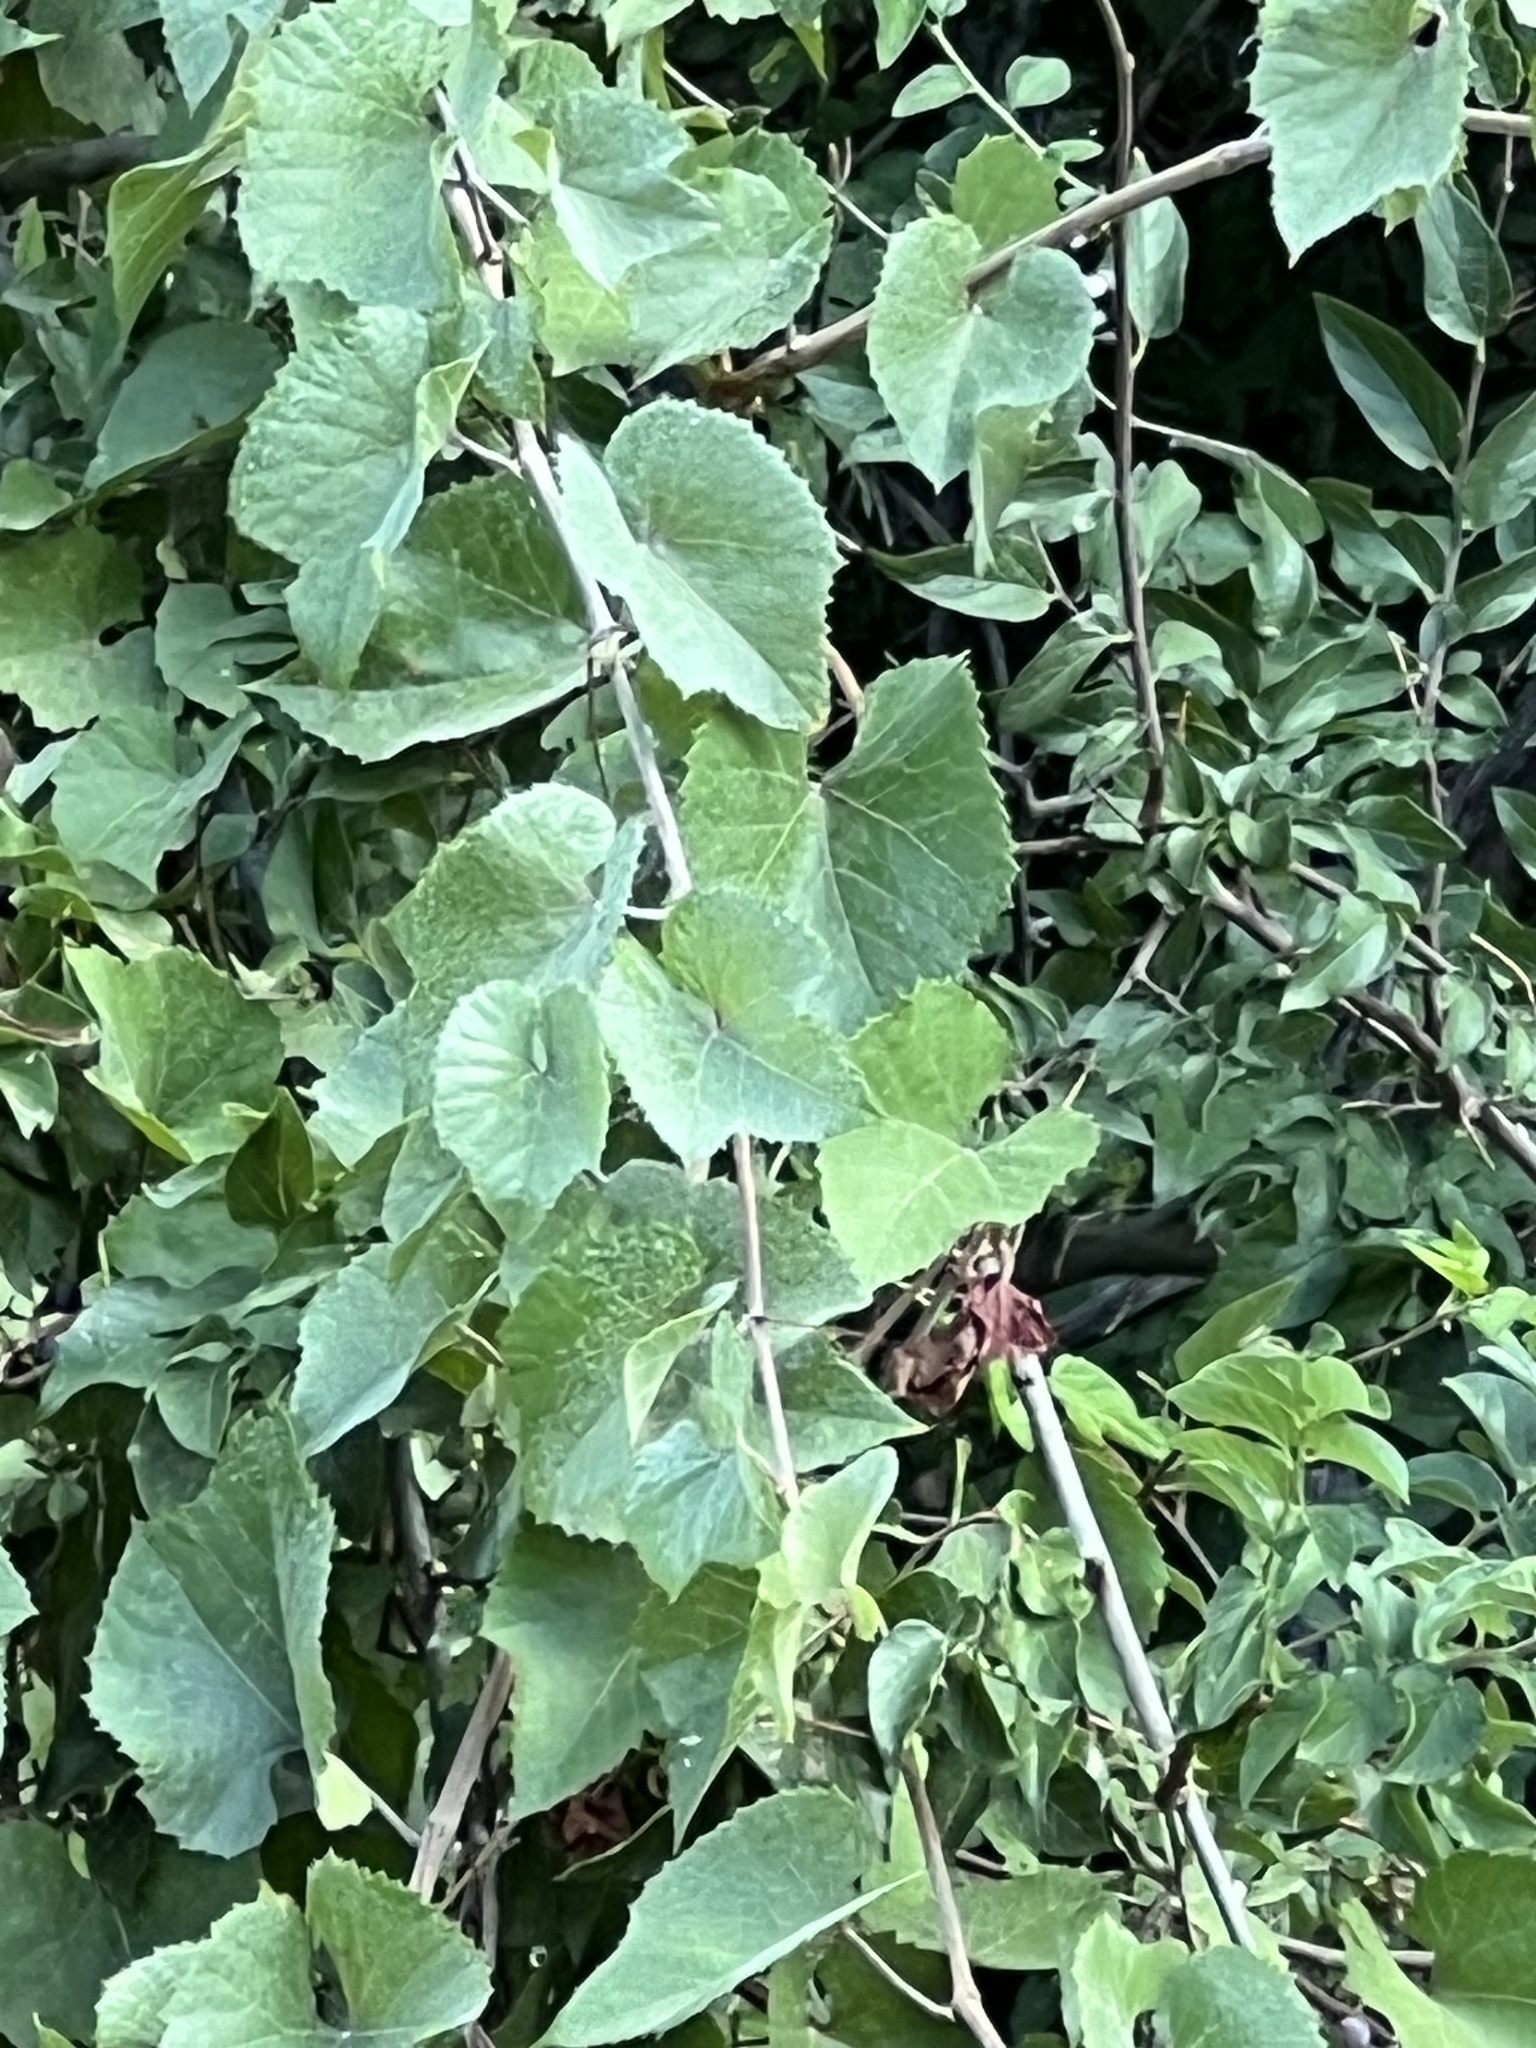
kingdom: Plantae
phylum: Tracheophyta
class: Magnoliopsida
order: Vitales
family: Vitaceae
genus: Vitis
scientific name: Vitis arizonica
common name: Canyon grape
